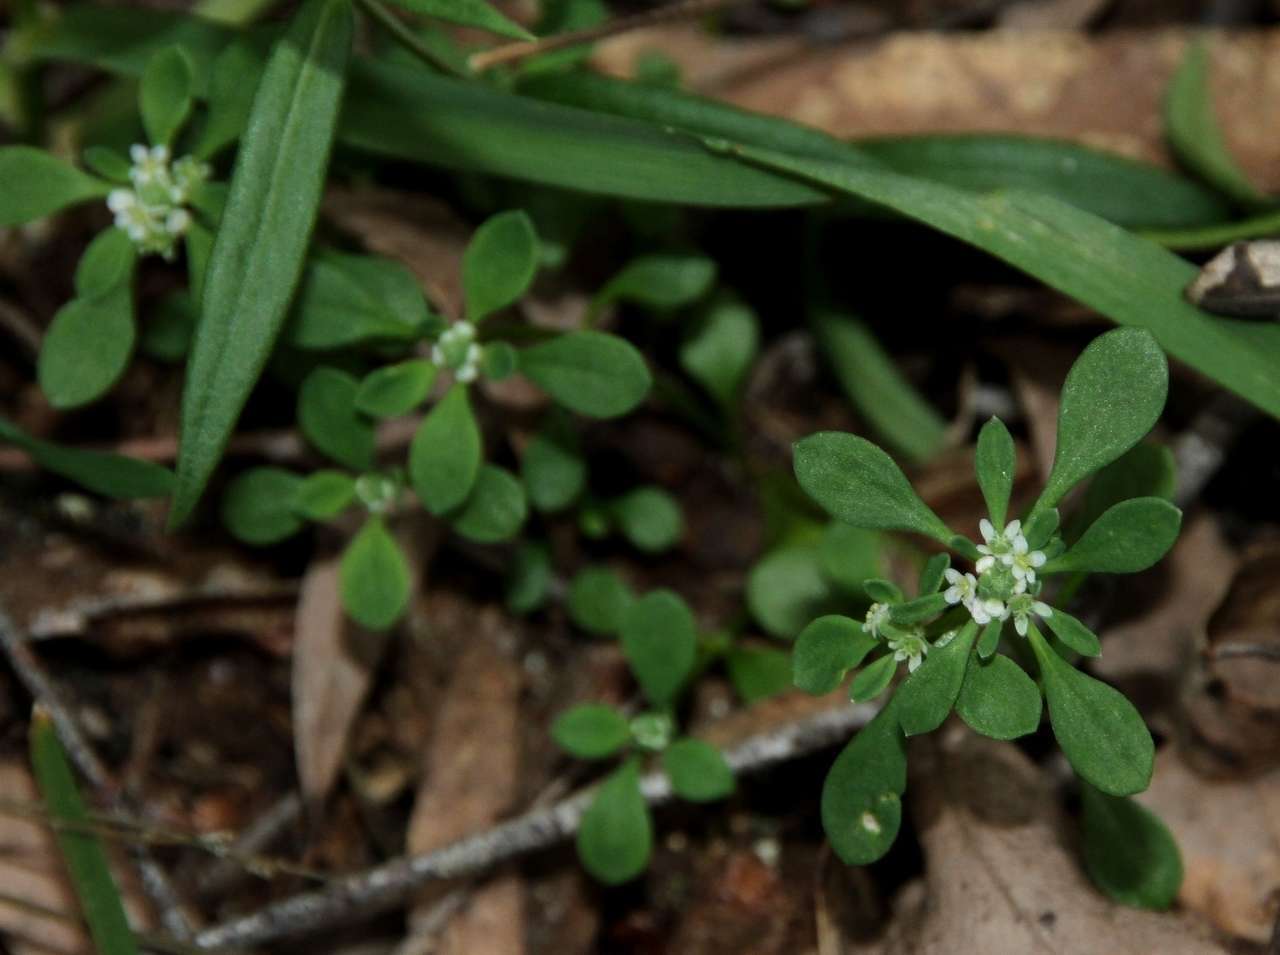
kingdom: Plantae
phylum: Tracheophyta
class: Magnoliopsida
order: Malpighiales
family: Phyllanthaceae
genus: Poranthera
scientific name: Poranthera microphylla
